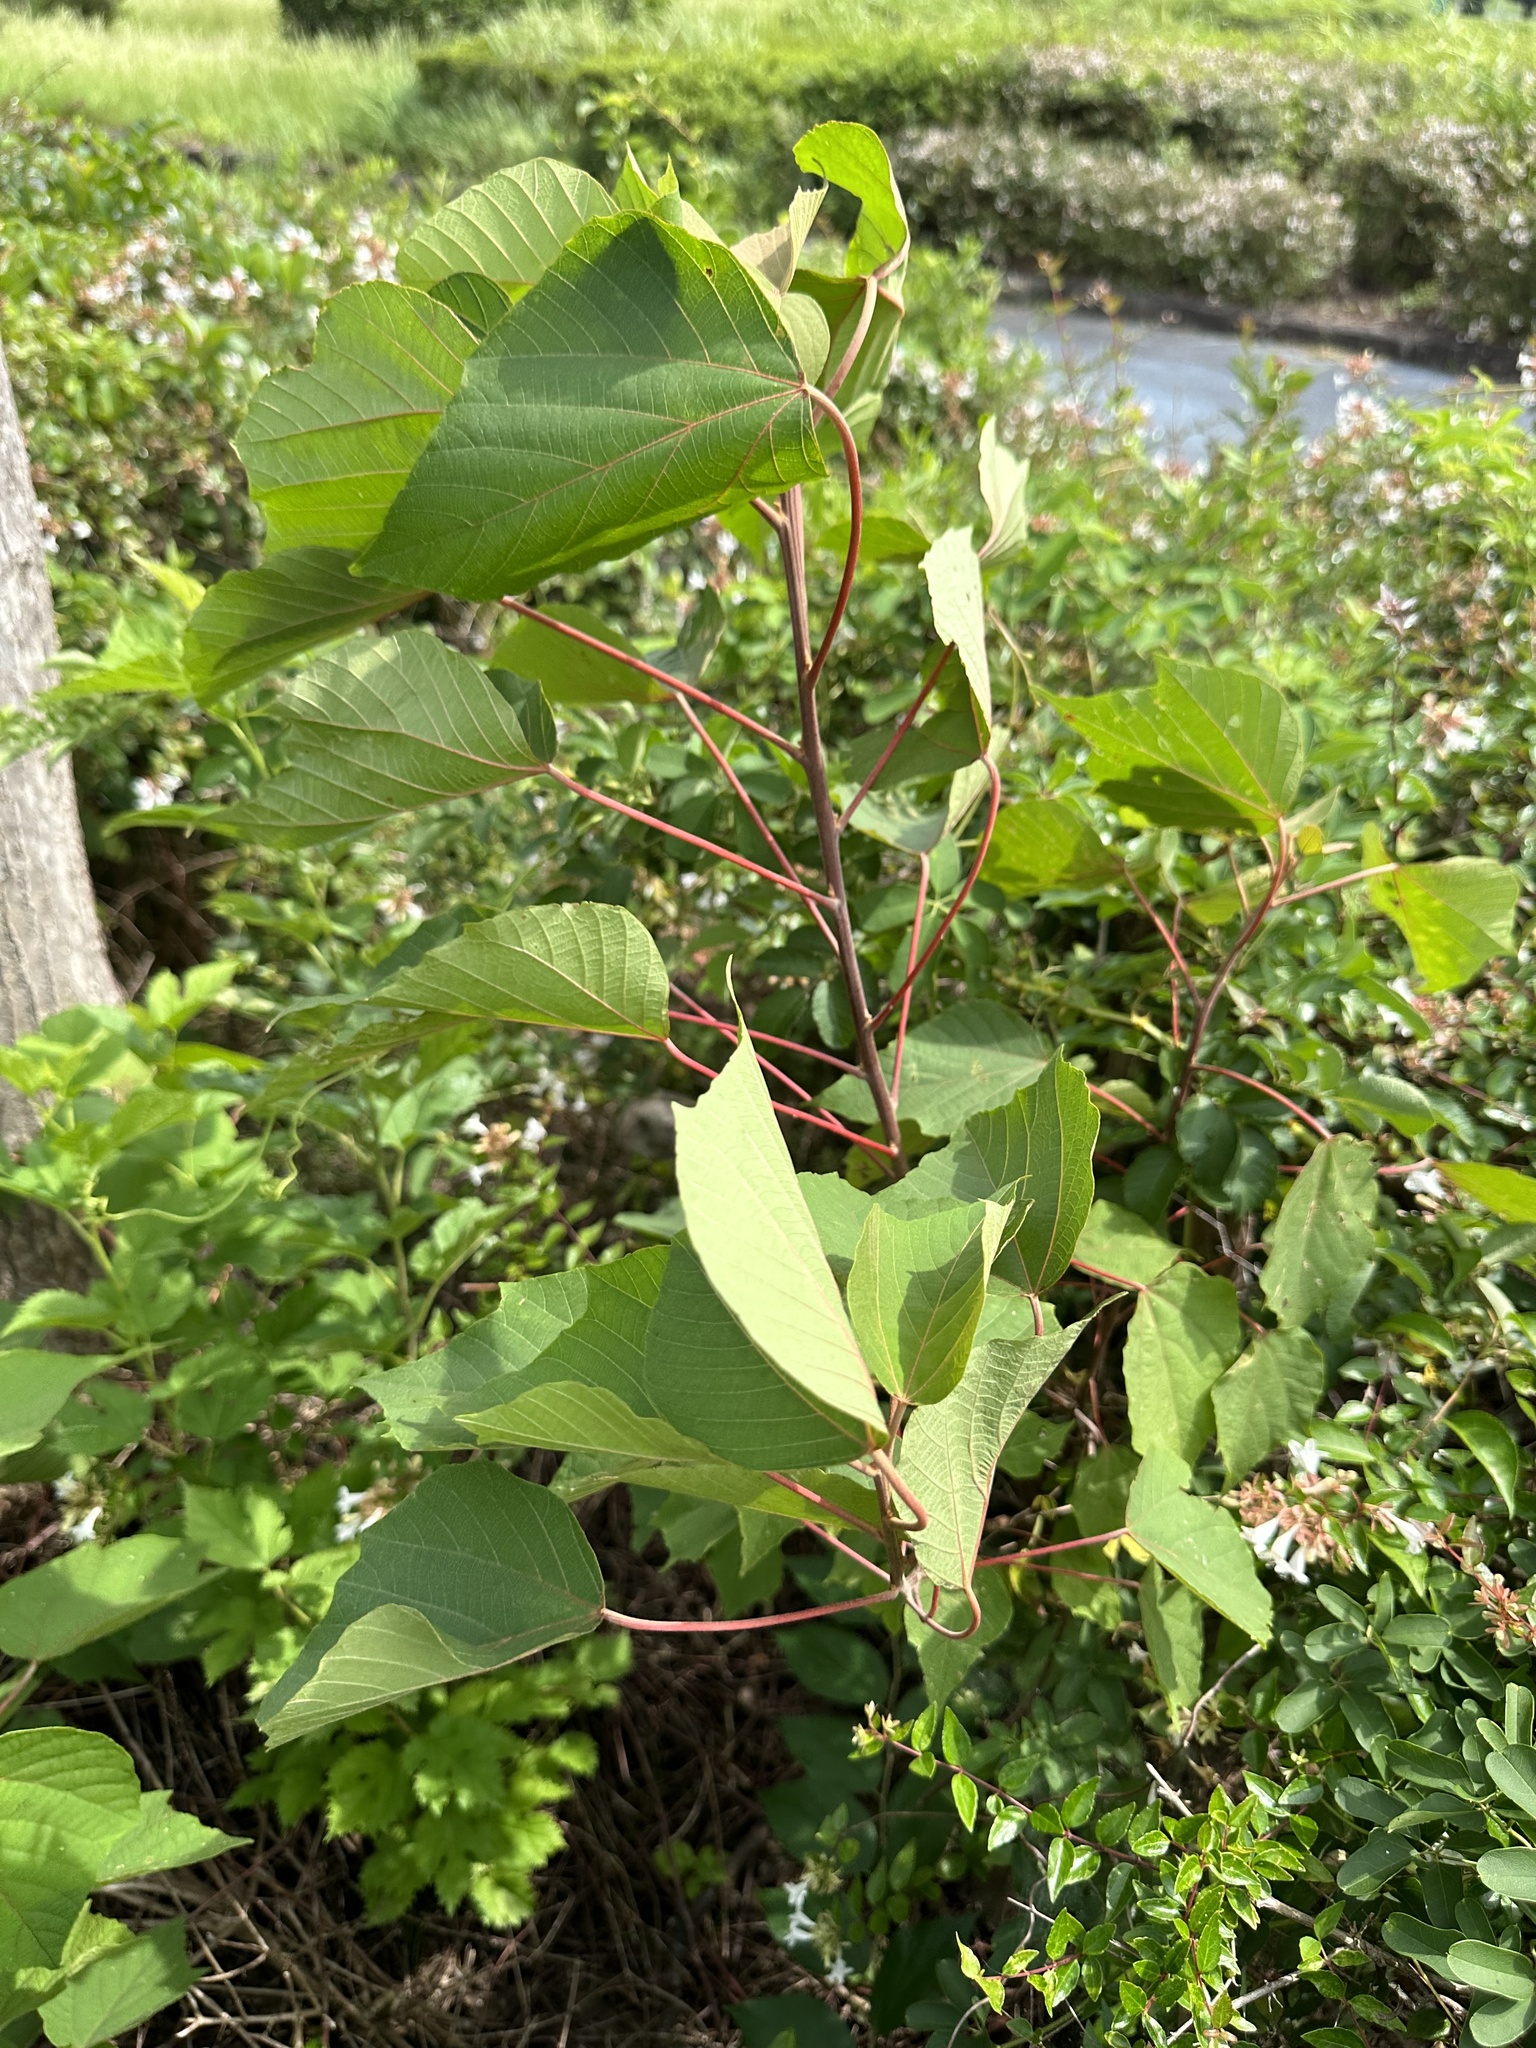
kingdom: Plantae
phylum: Tracheophyta
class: Magnoliopsida
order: Malpighiales
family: Euphorbiaceae
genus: Mallotus
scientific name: Mallotus japonicus
